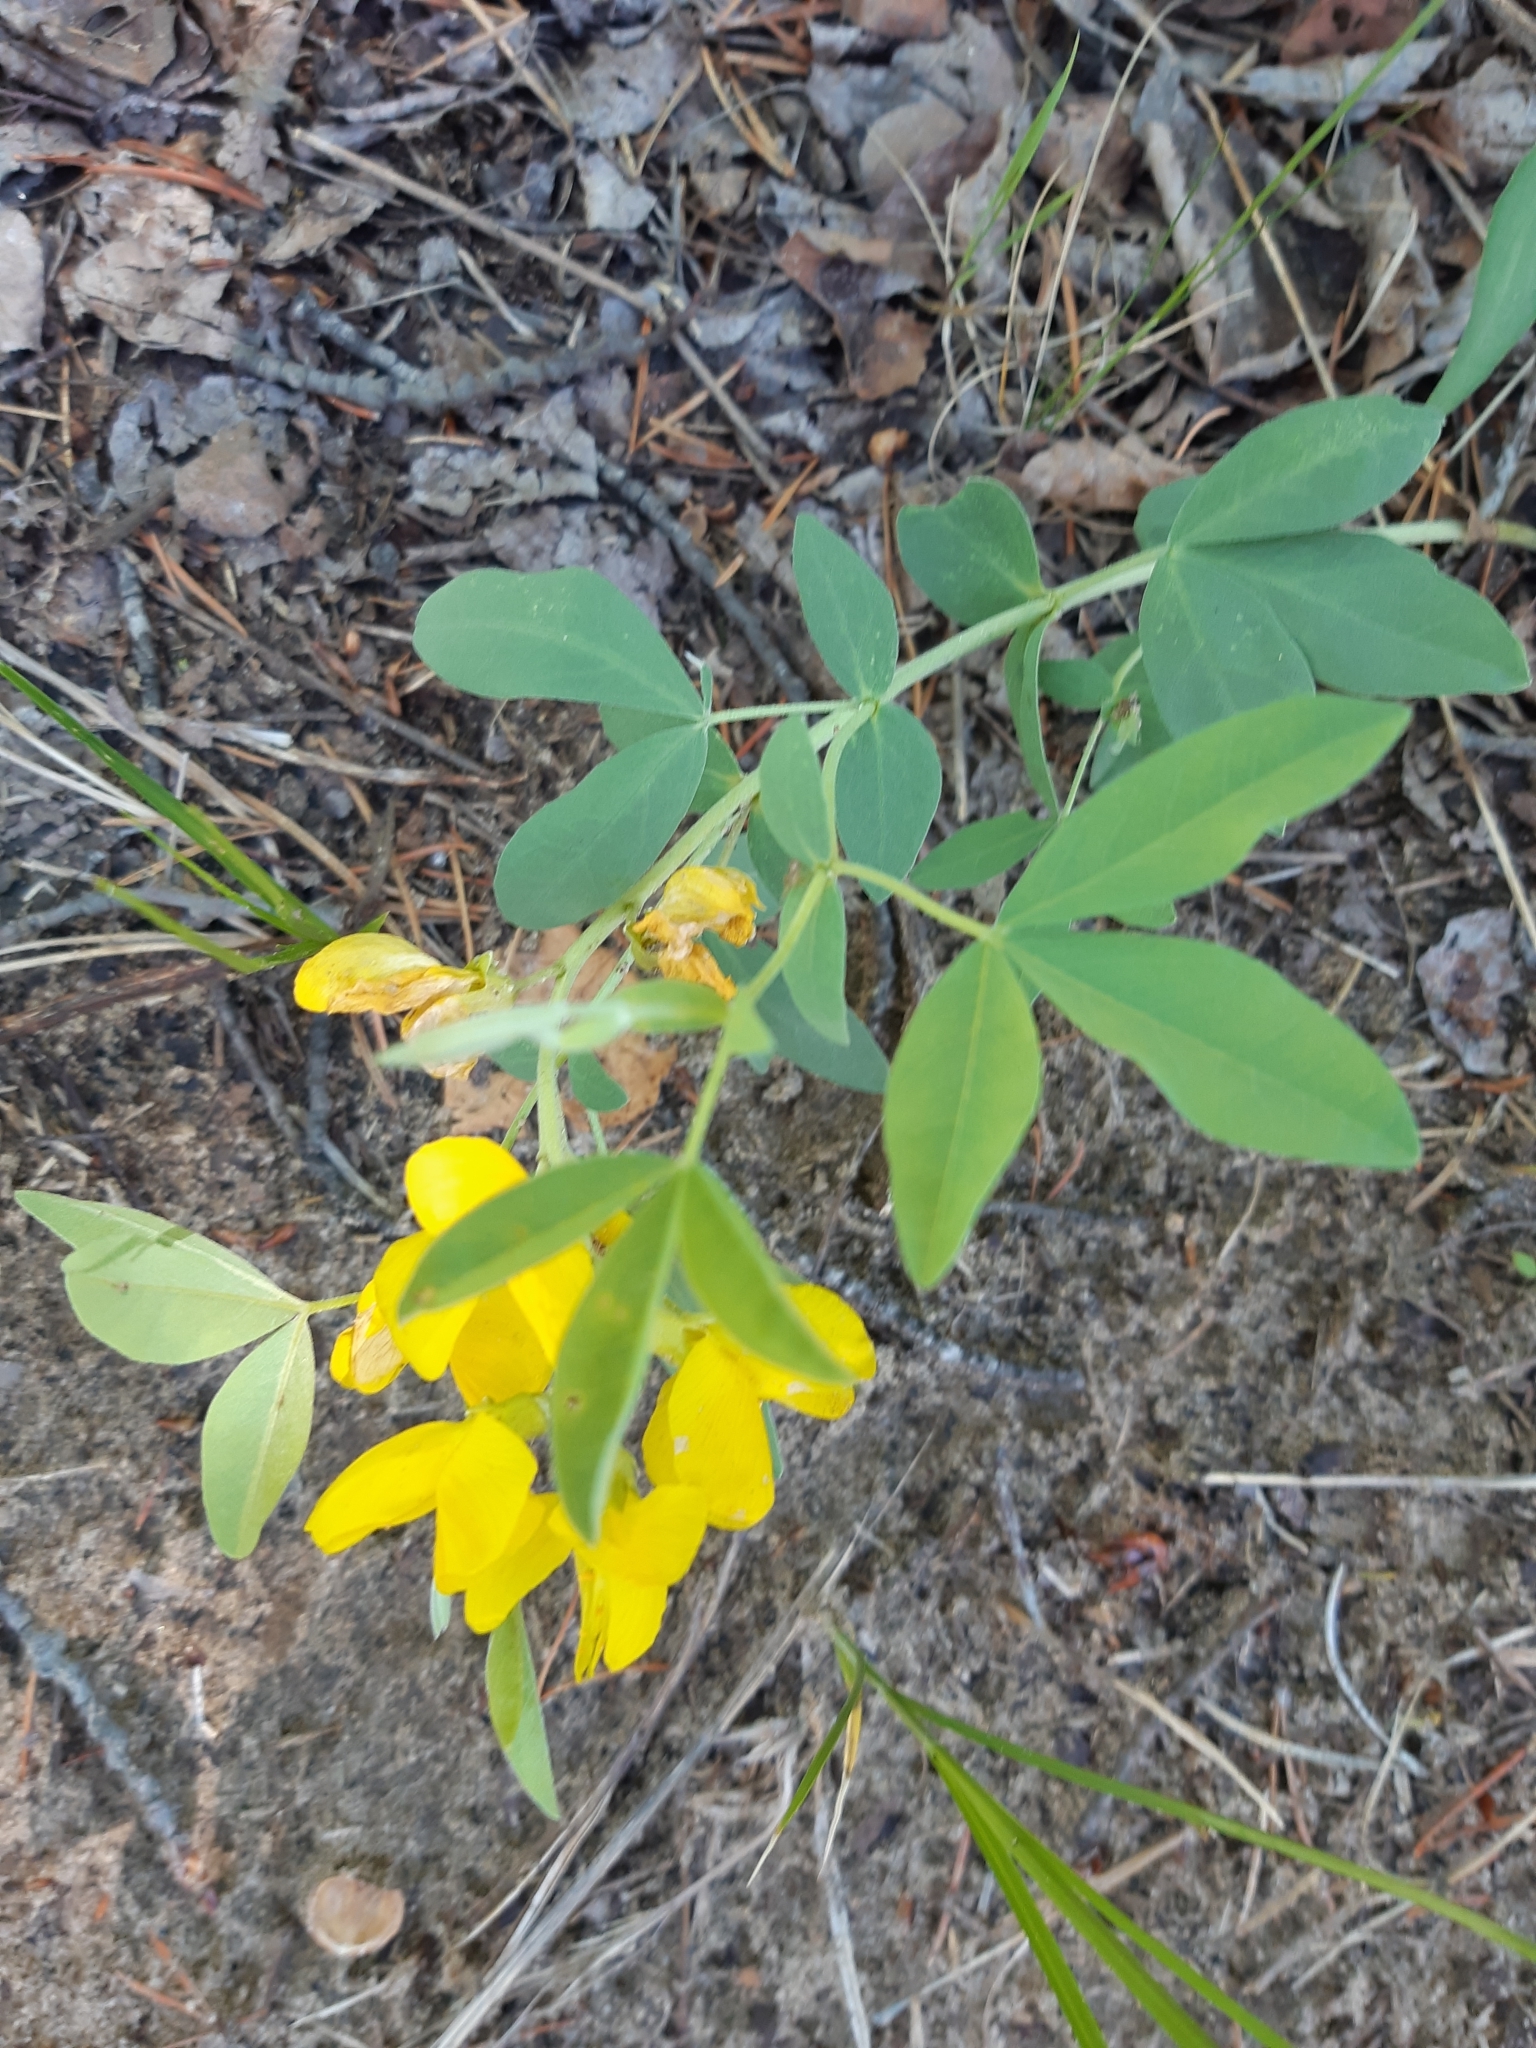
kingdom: Plantae
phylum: Tracheophyta
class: Magnoliopsida
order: Fabales
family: Fabaceae
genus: Thermopsis
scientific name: Thermopsis rhombifolia
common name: Circle-pod-pea
